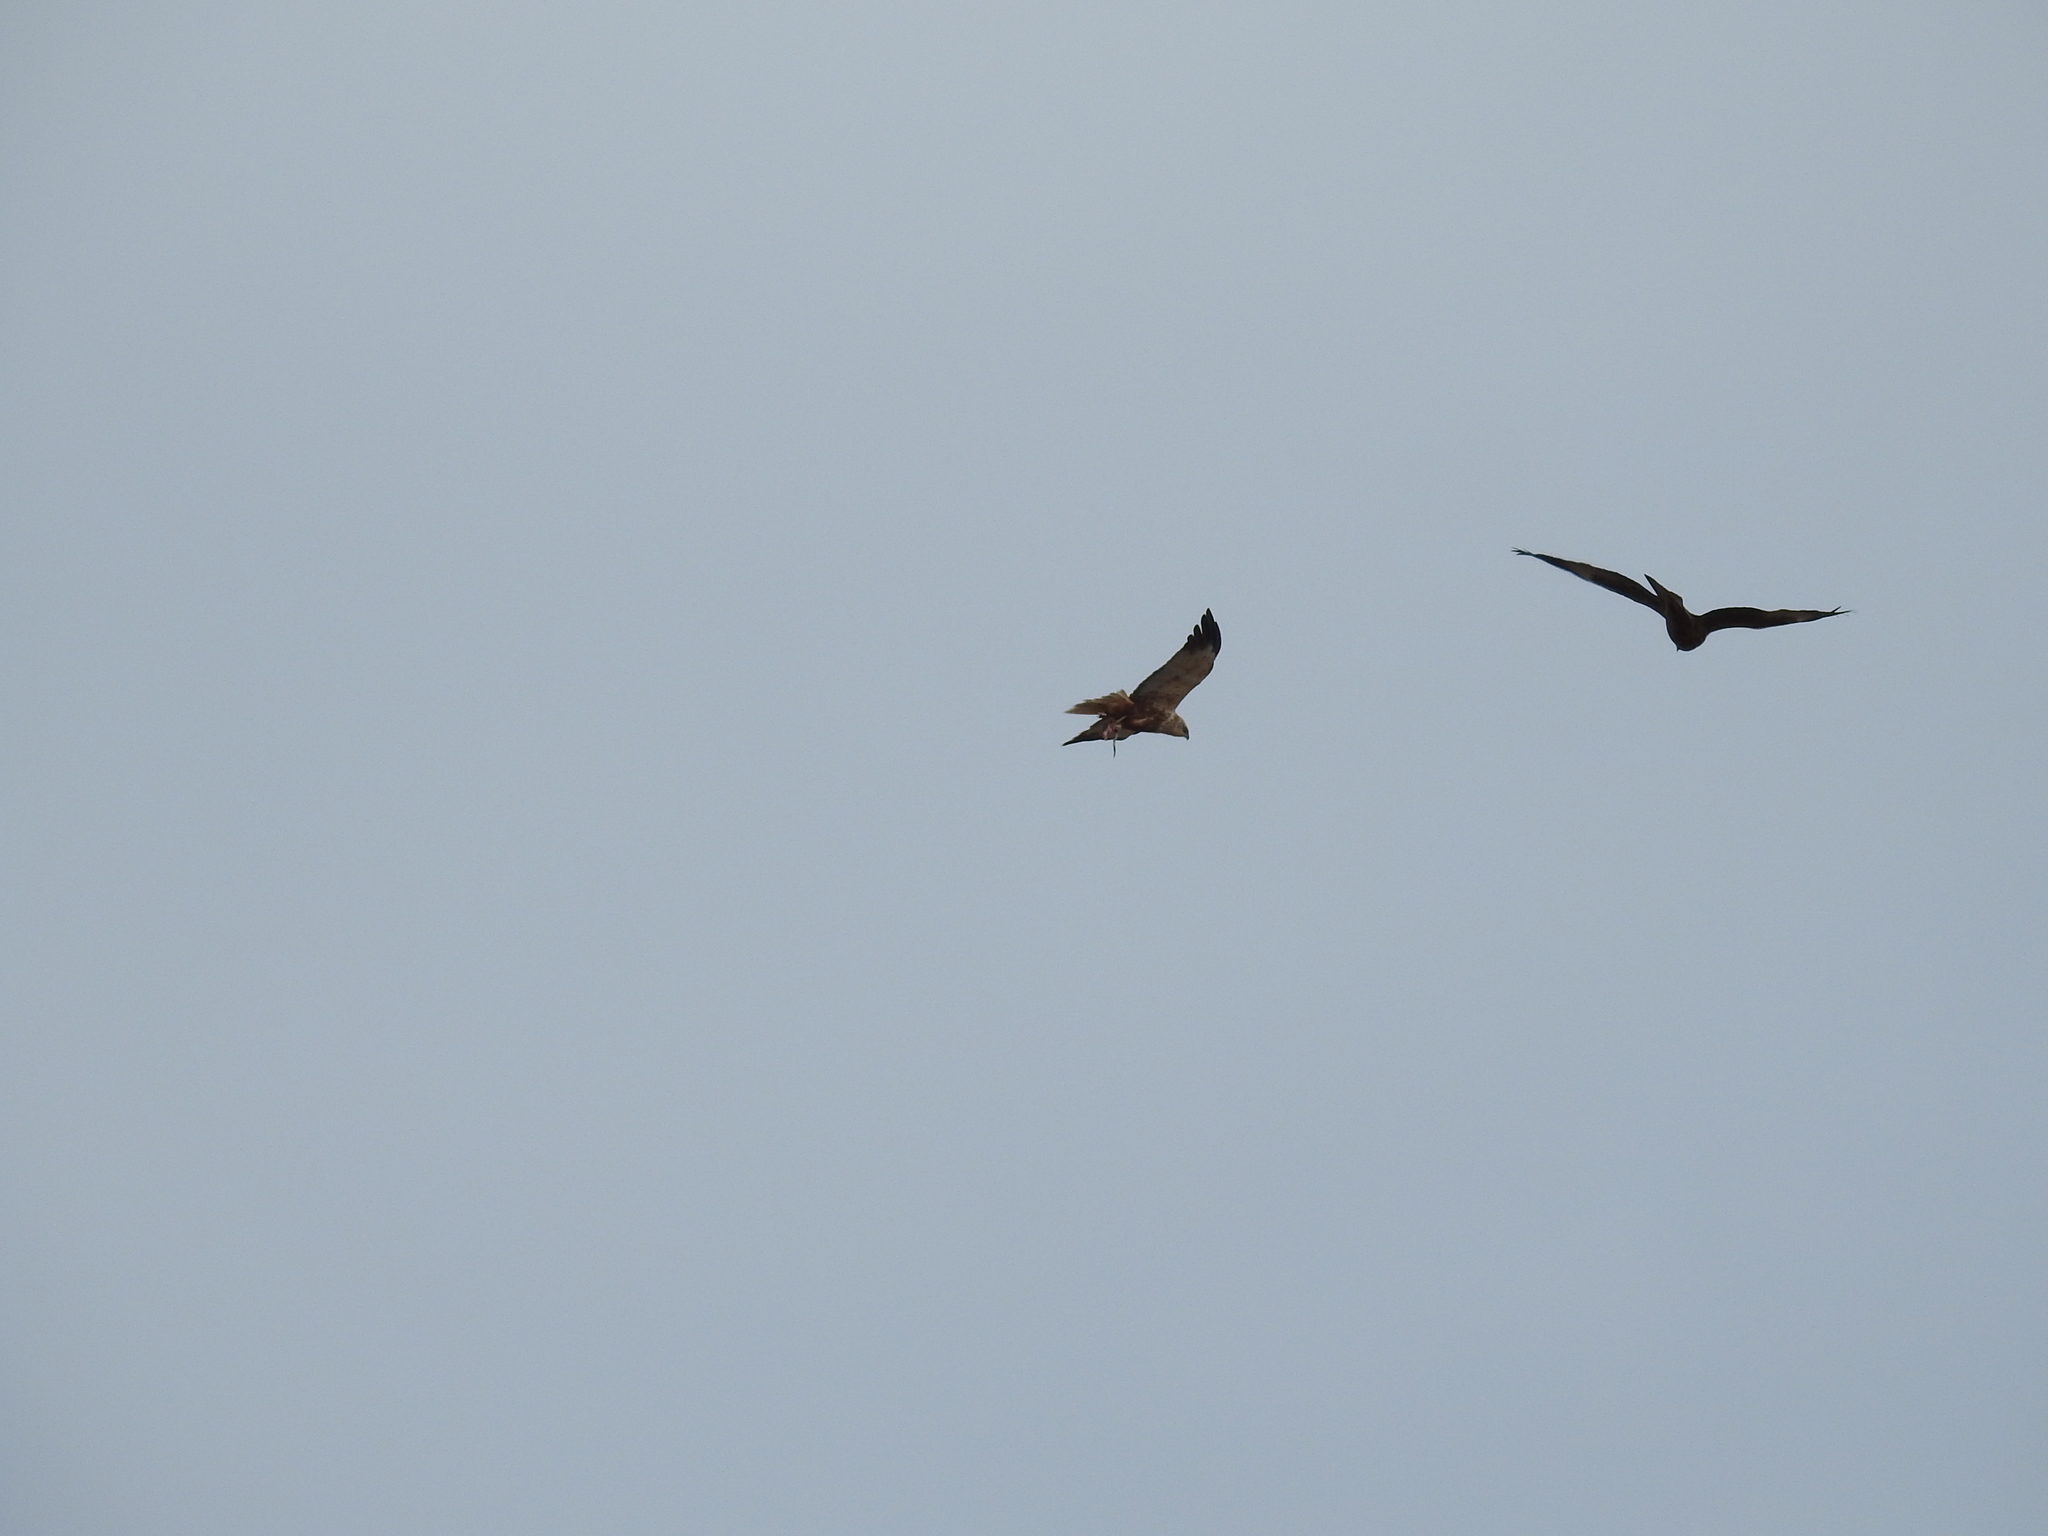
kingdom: Animalia
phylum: Chordata
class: Aves
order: Accipitriformes
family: Accipitridae
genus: Circus
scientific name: Circus aeruginosus
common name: Western marsh harrier
